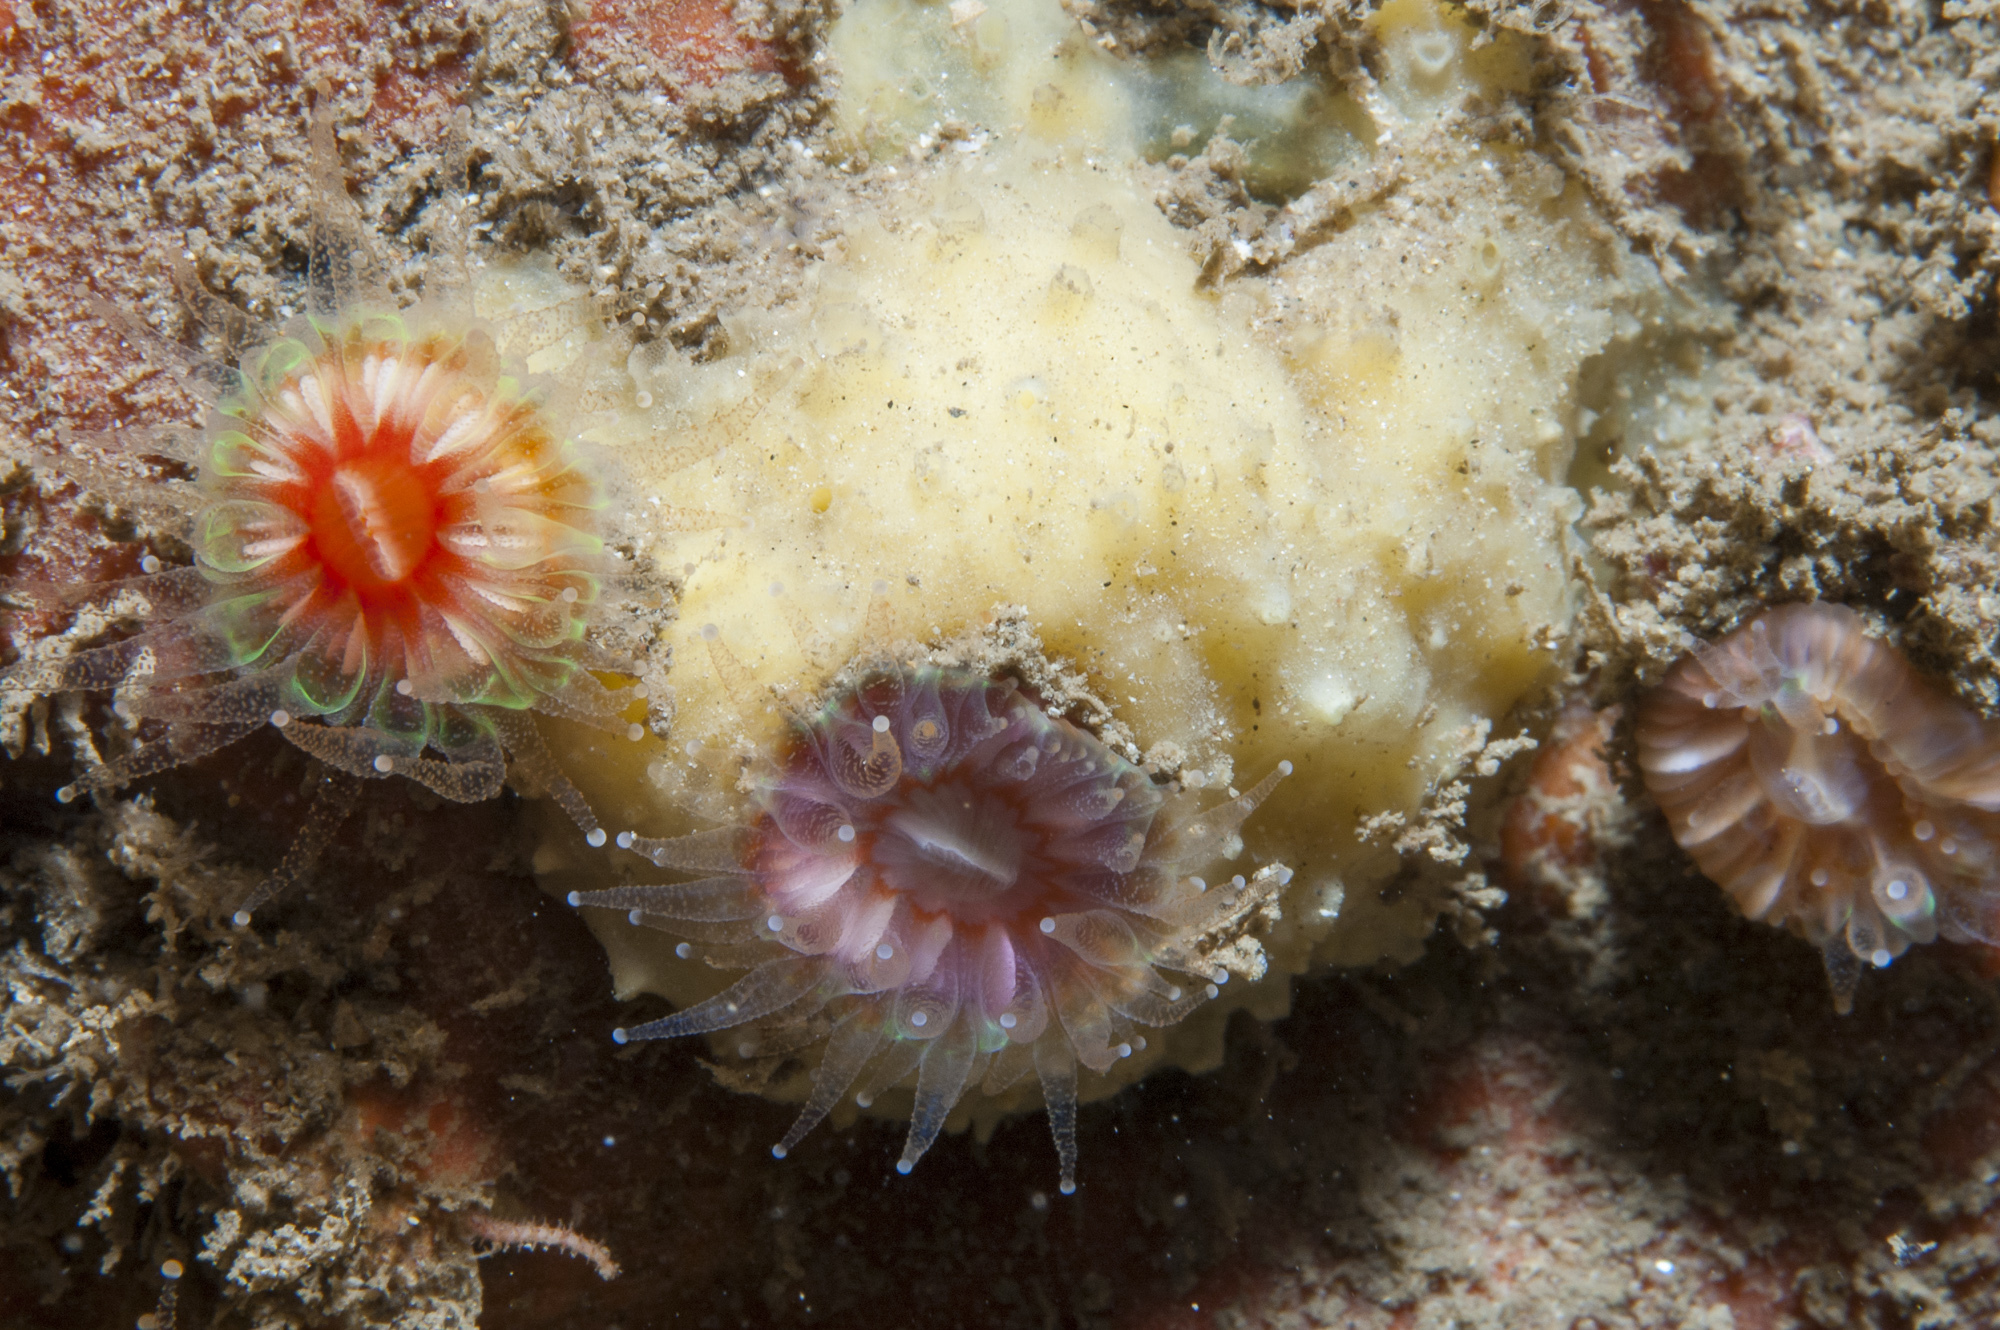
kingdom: Animalia
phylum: Porifera
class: Demospongiae
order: Poecilosclerida
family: Coelosphaeridae
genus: Lissodendoryx
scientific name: Lissodendoryx jenjonesae
